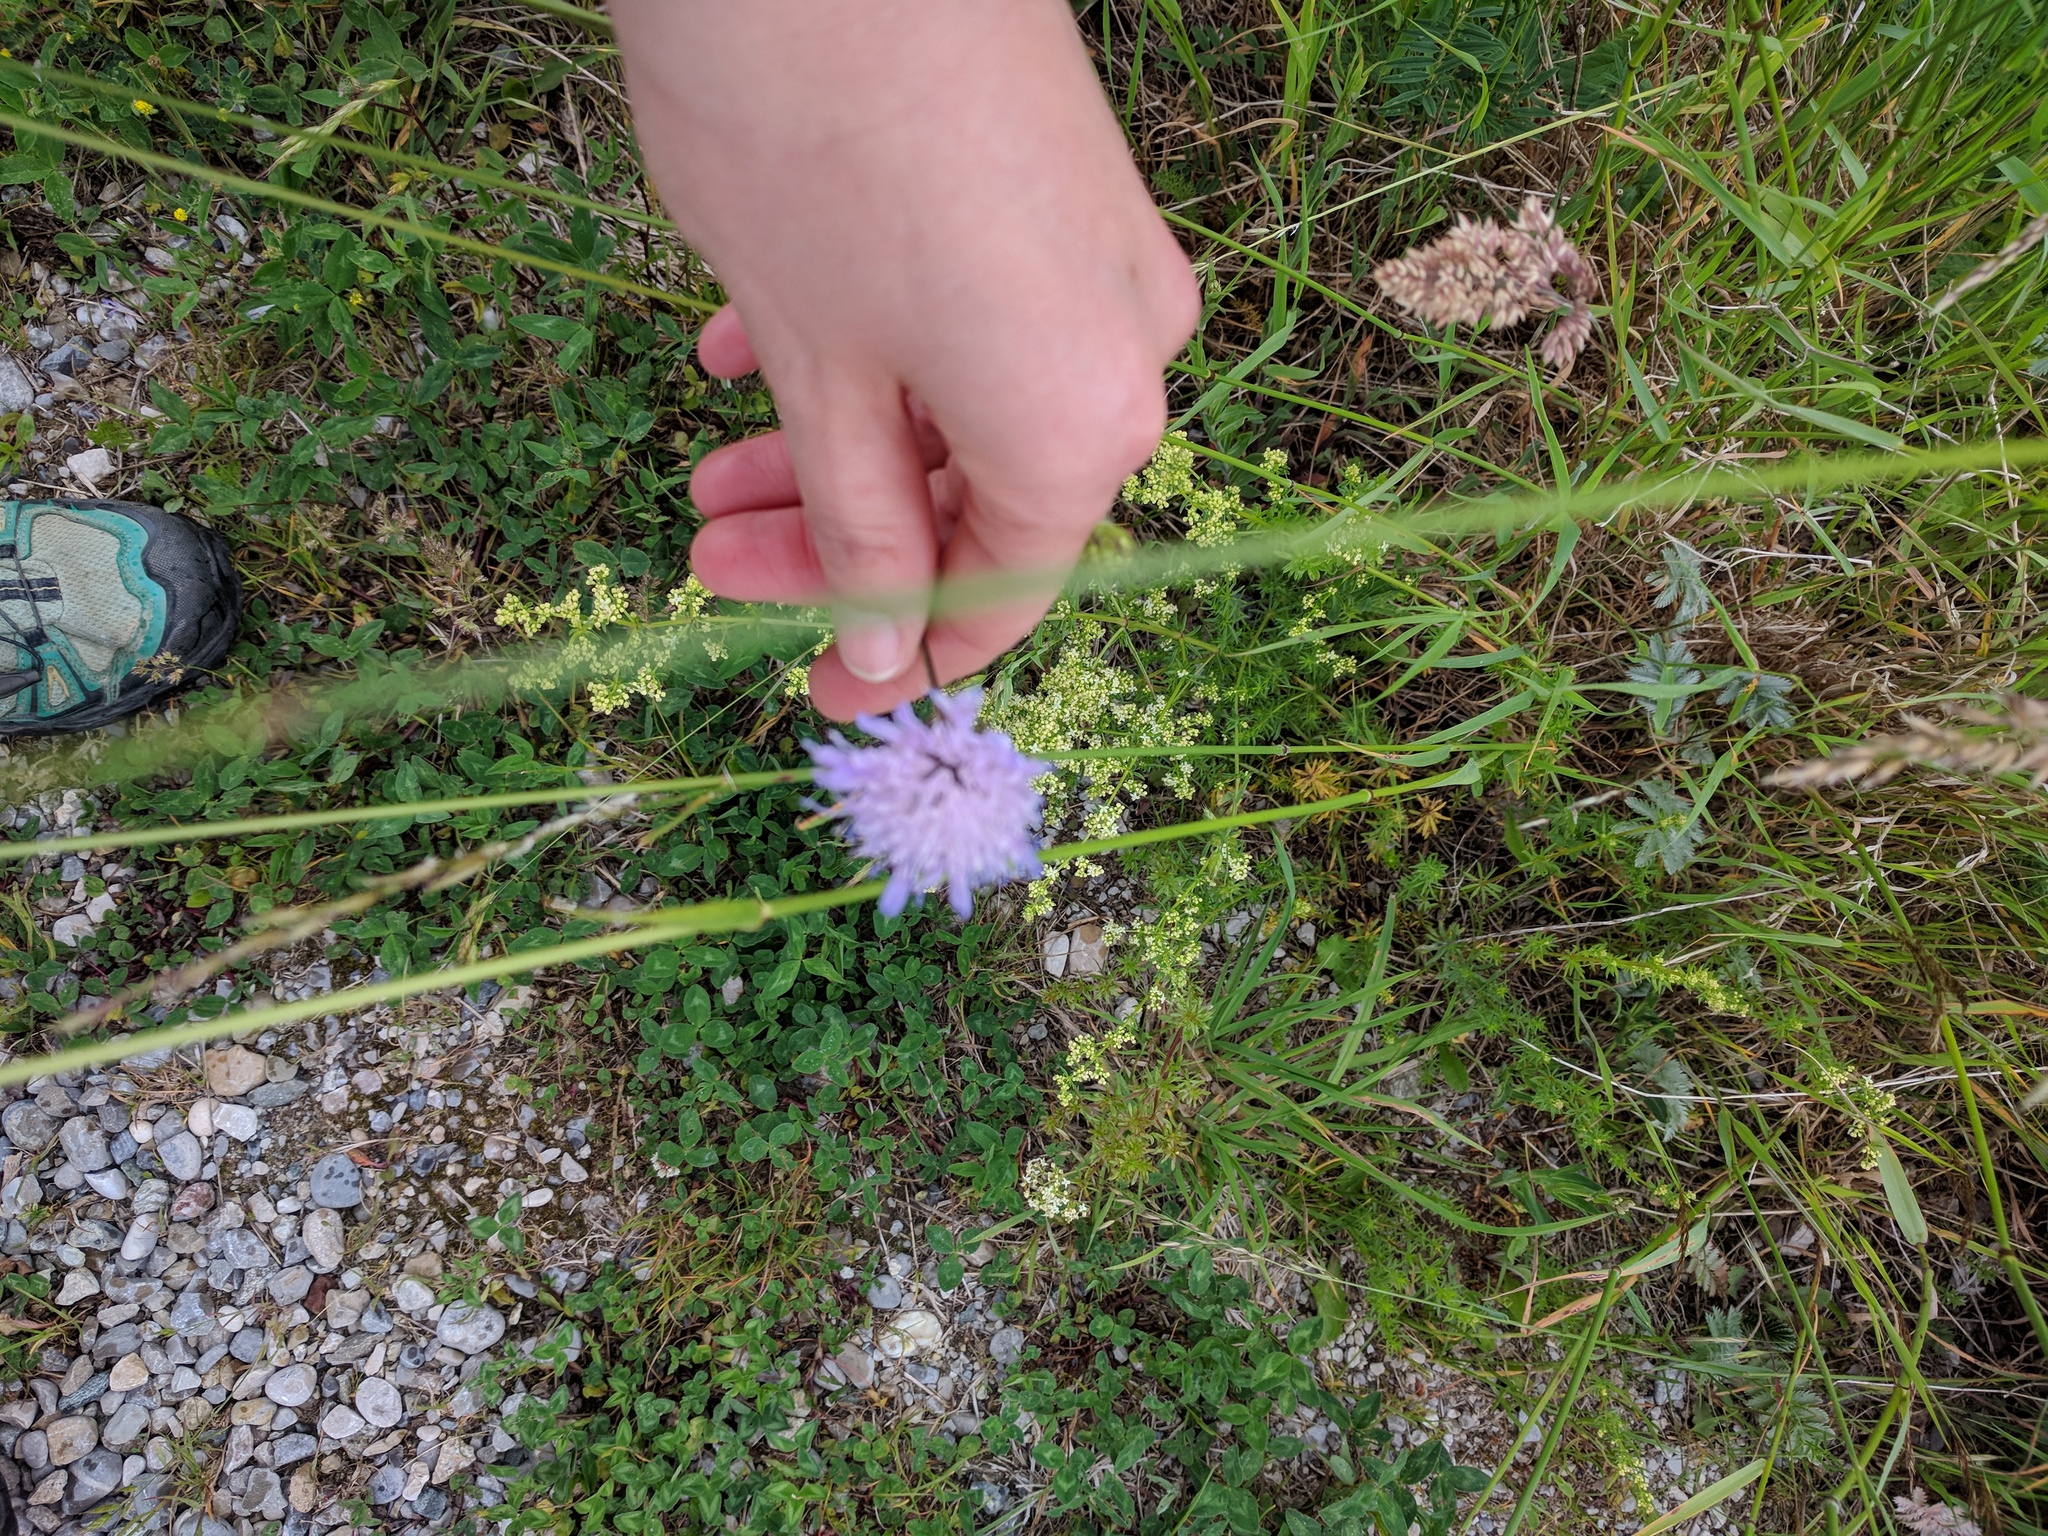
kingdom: Plantae
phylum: Tracheophyta
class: Magnoliopsida
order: Dipsacales
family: Caprifoliaceae
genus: Knautia
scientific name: Knautia arvensis
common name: Field scabiosa
